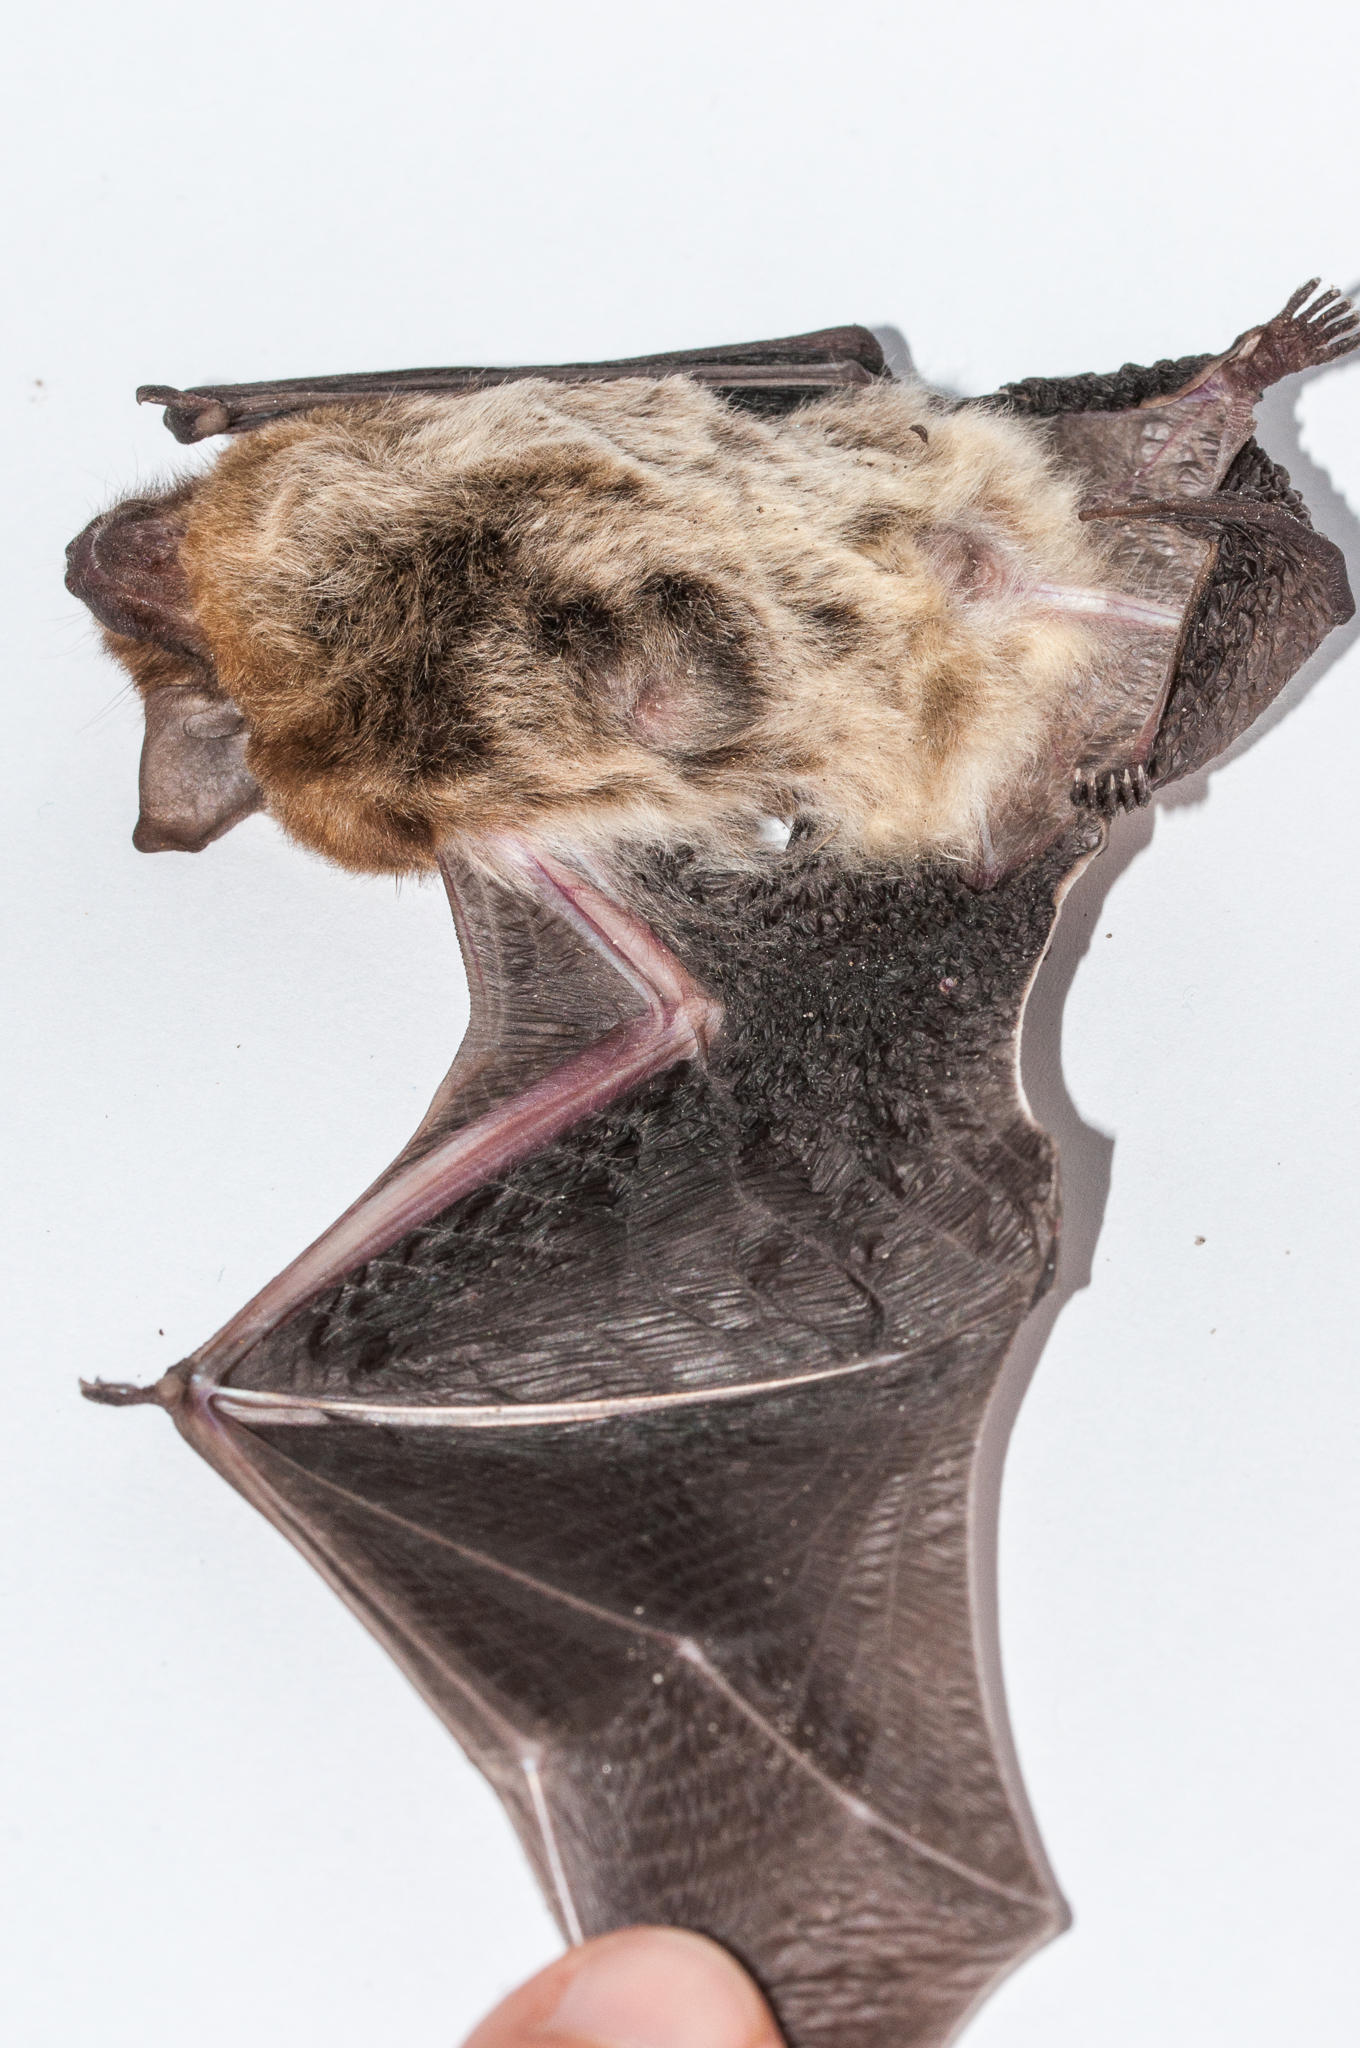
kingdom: Animalia
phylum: Chordata
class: Mammalia
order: Chiroptera
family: Vespertilionidae
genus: Laephotis
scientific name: Laephotis capensis
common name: Cape serotine
